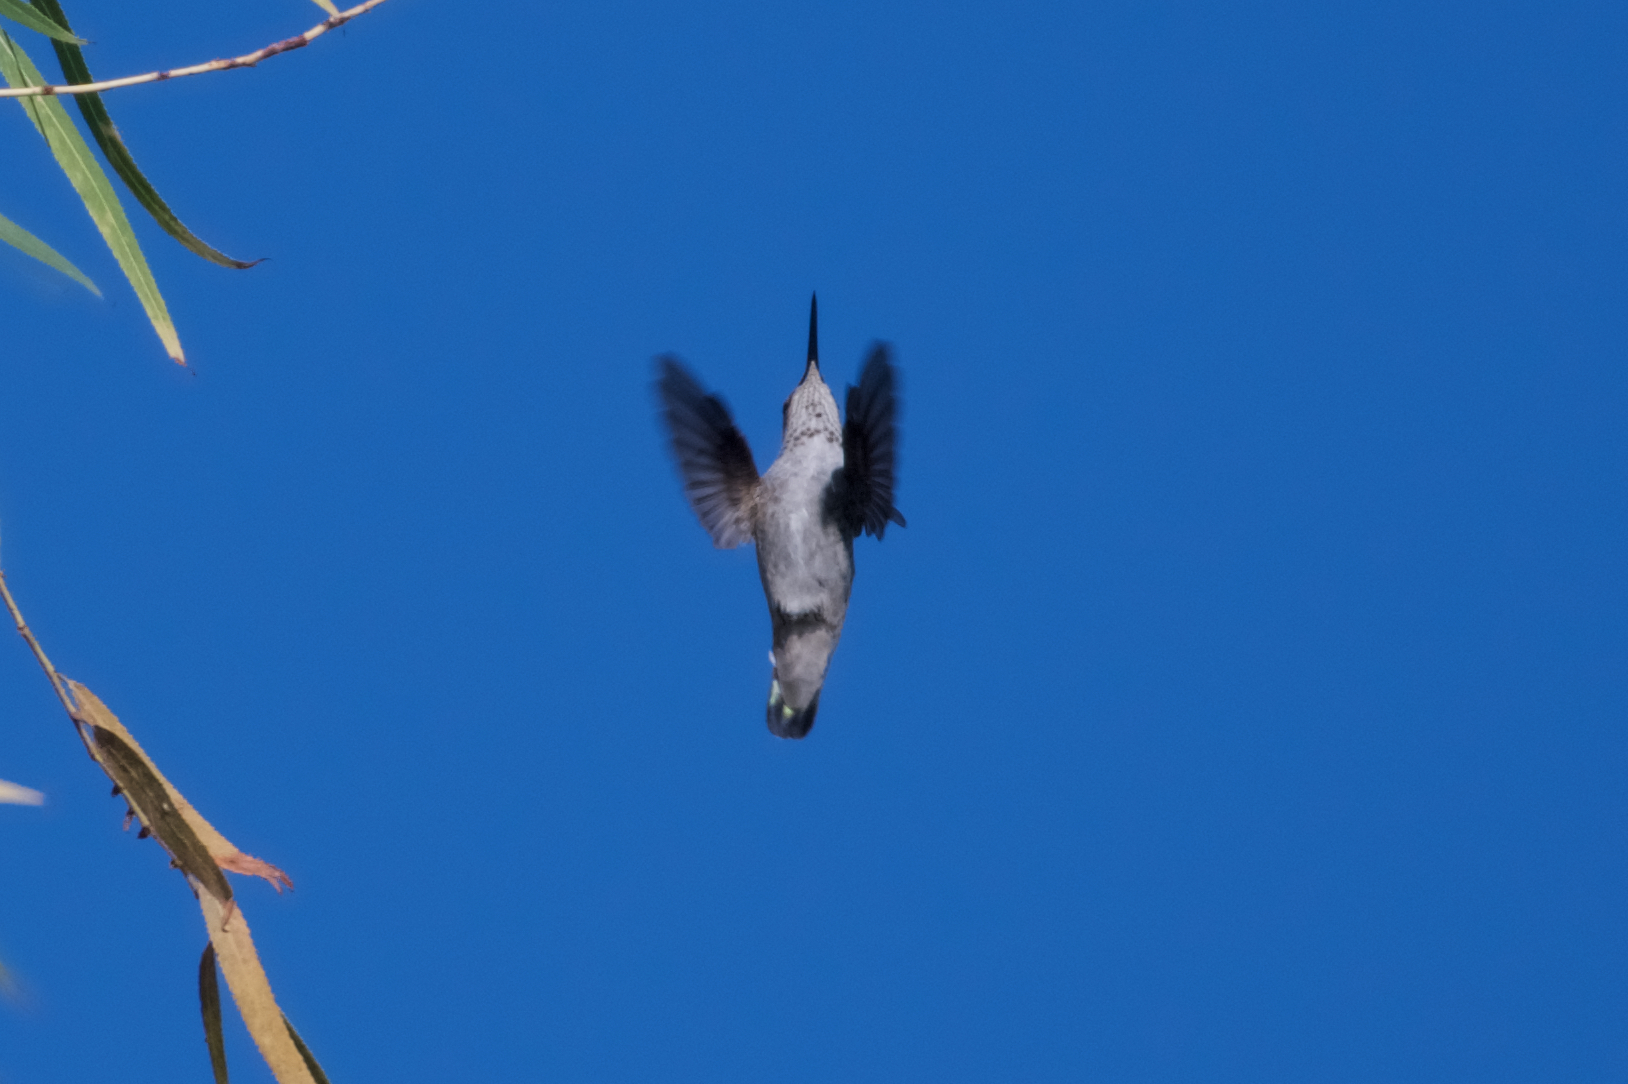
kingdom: Animalia
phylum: Chordata
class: Aves
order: Apodiformes
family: Trochilidae
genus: Calypte
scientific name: Calypte anna
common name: Anna's hummingbird
